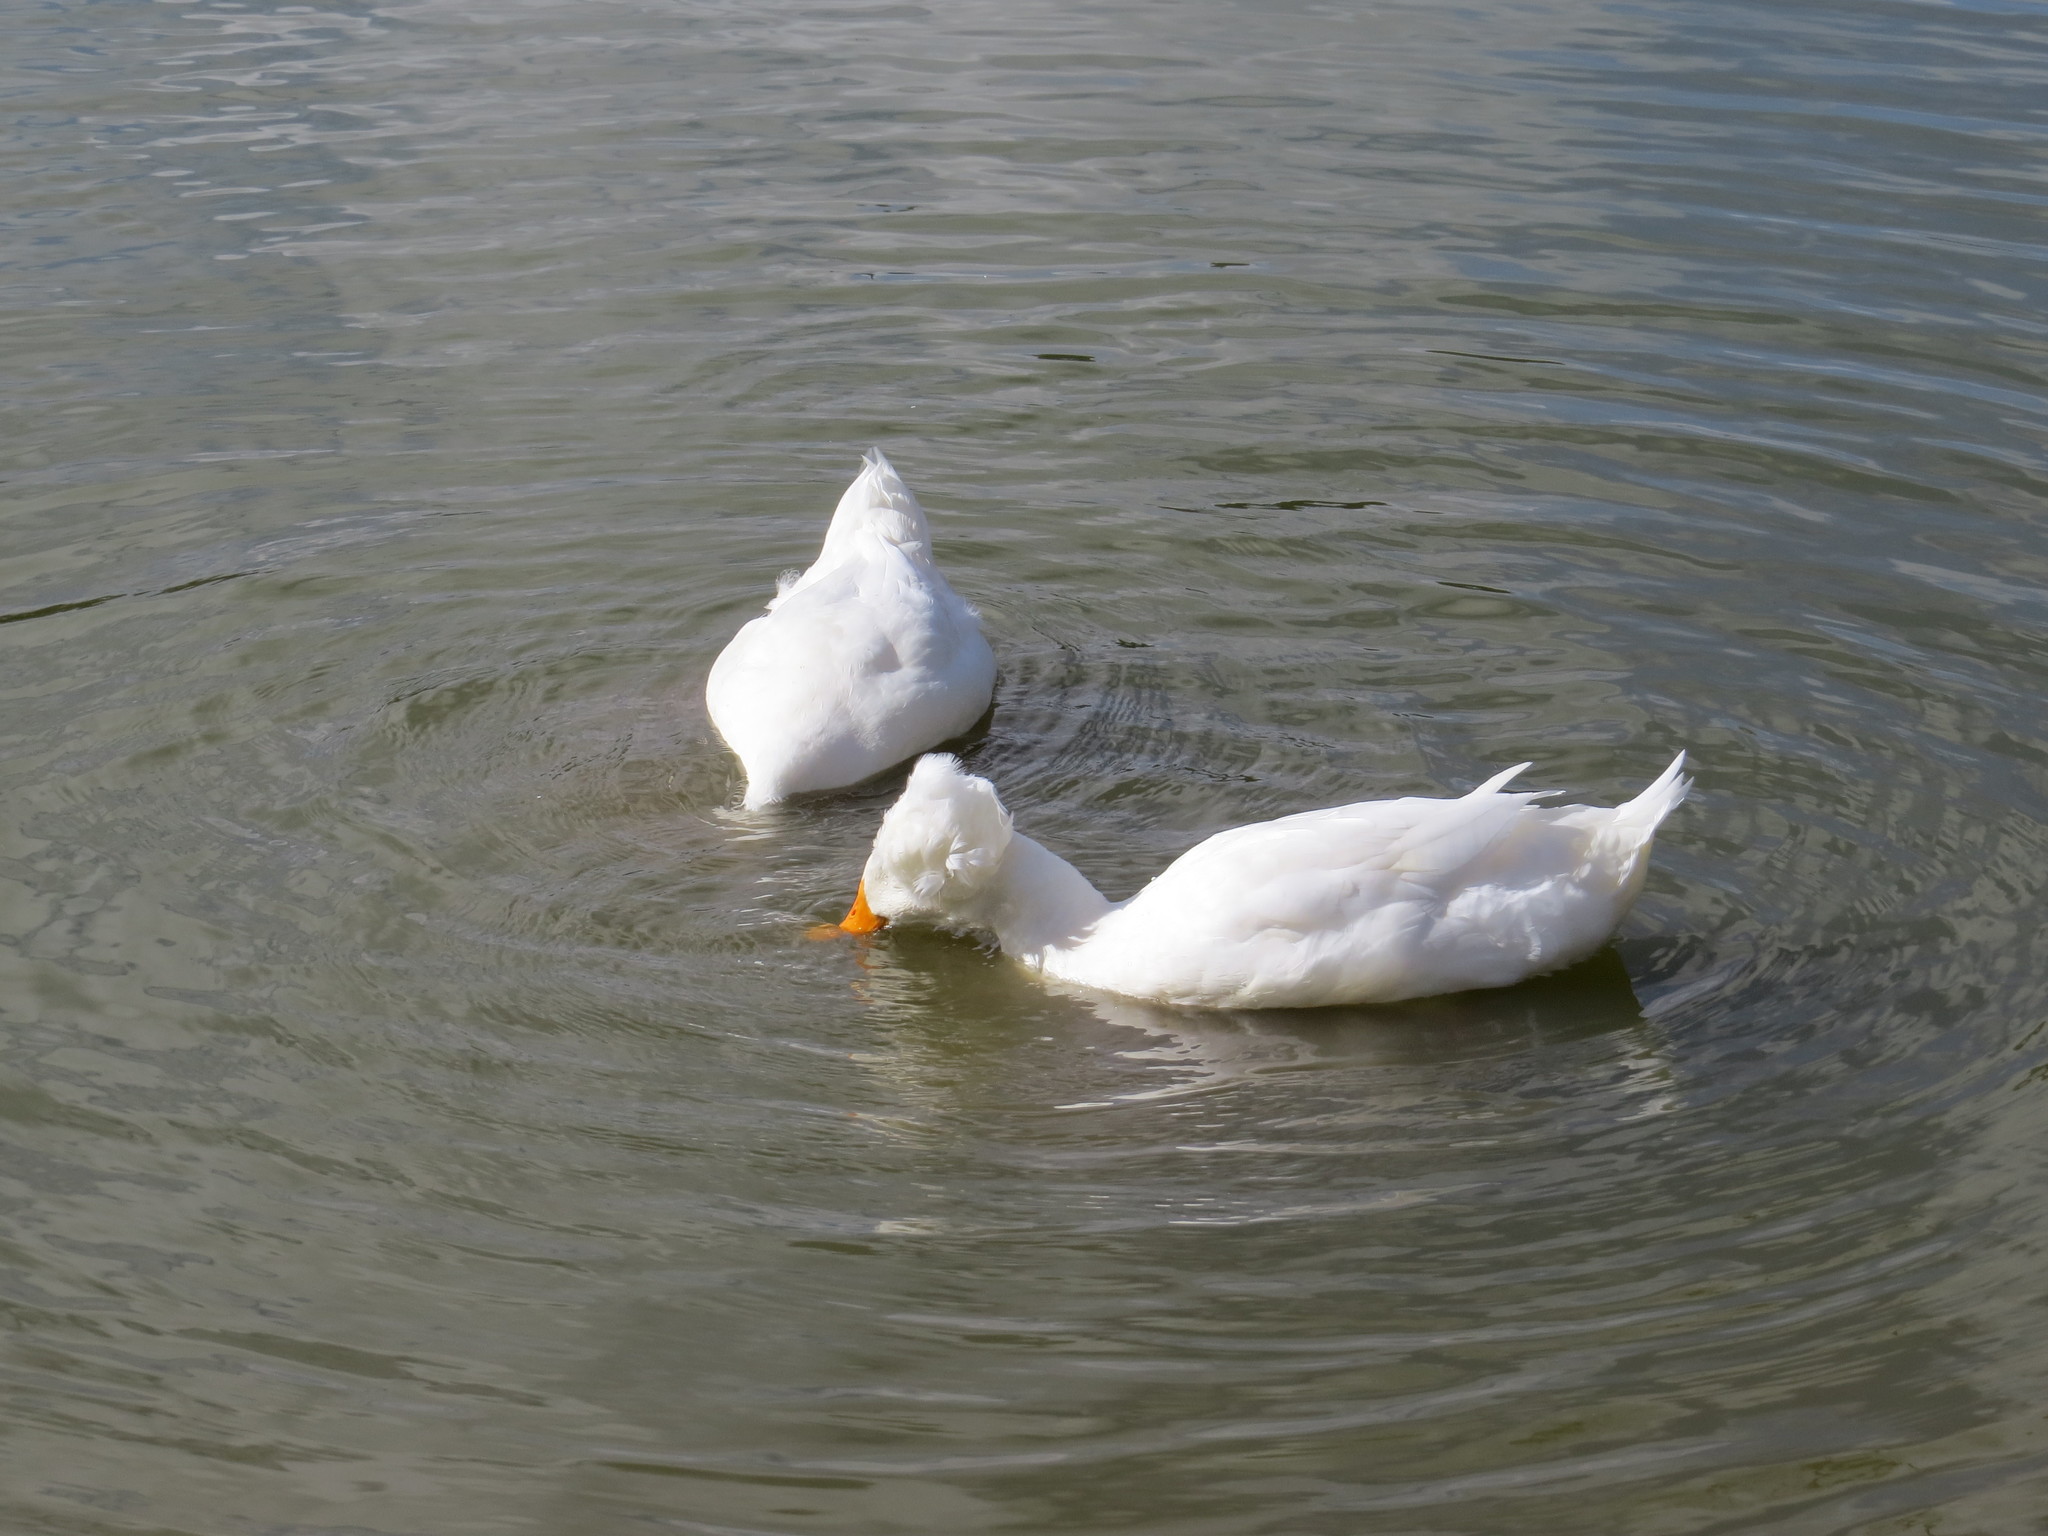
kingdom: Animalia
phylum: Chordata
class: Aves
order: Anseriformes
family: Anatidae
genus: Anas
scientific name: Anas platyrhynchos
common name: Mallard
